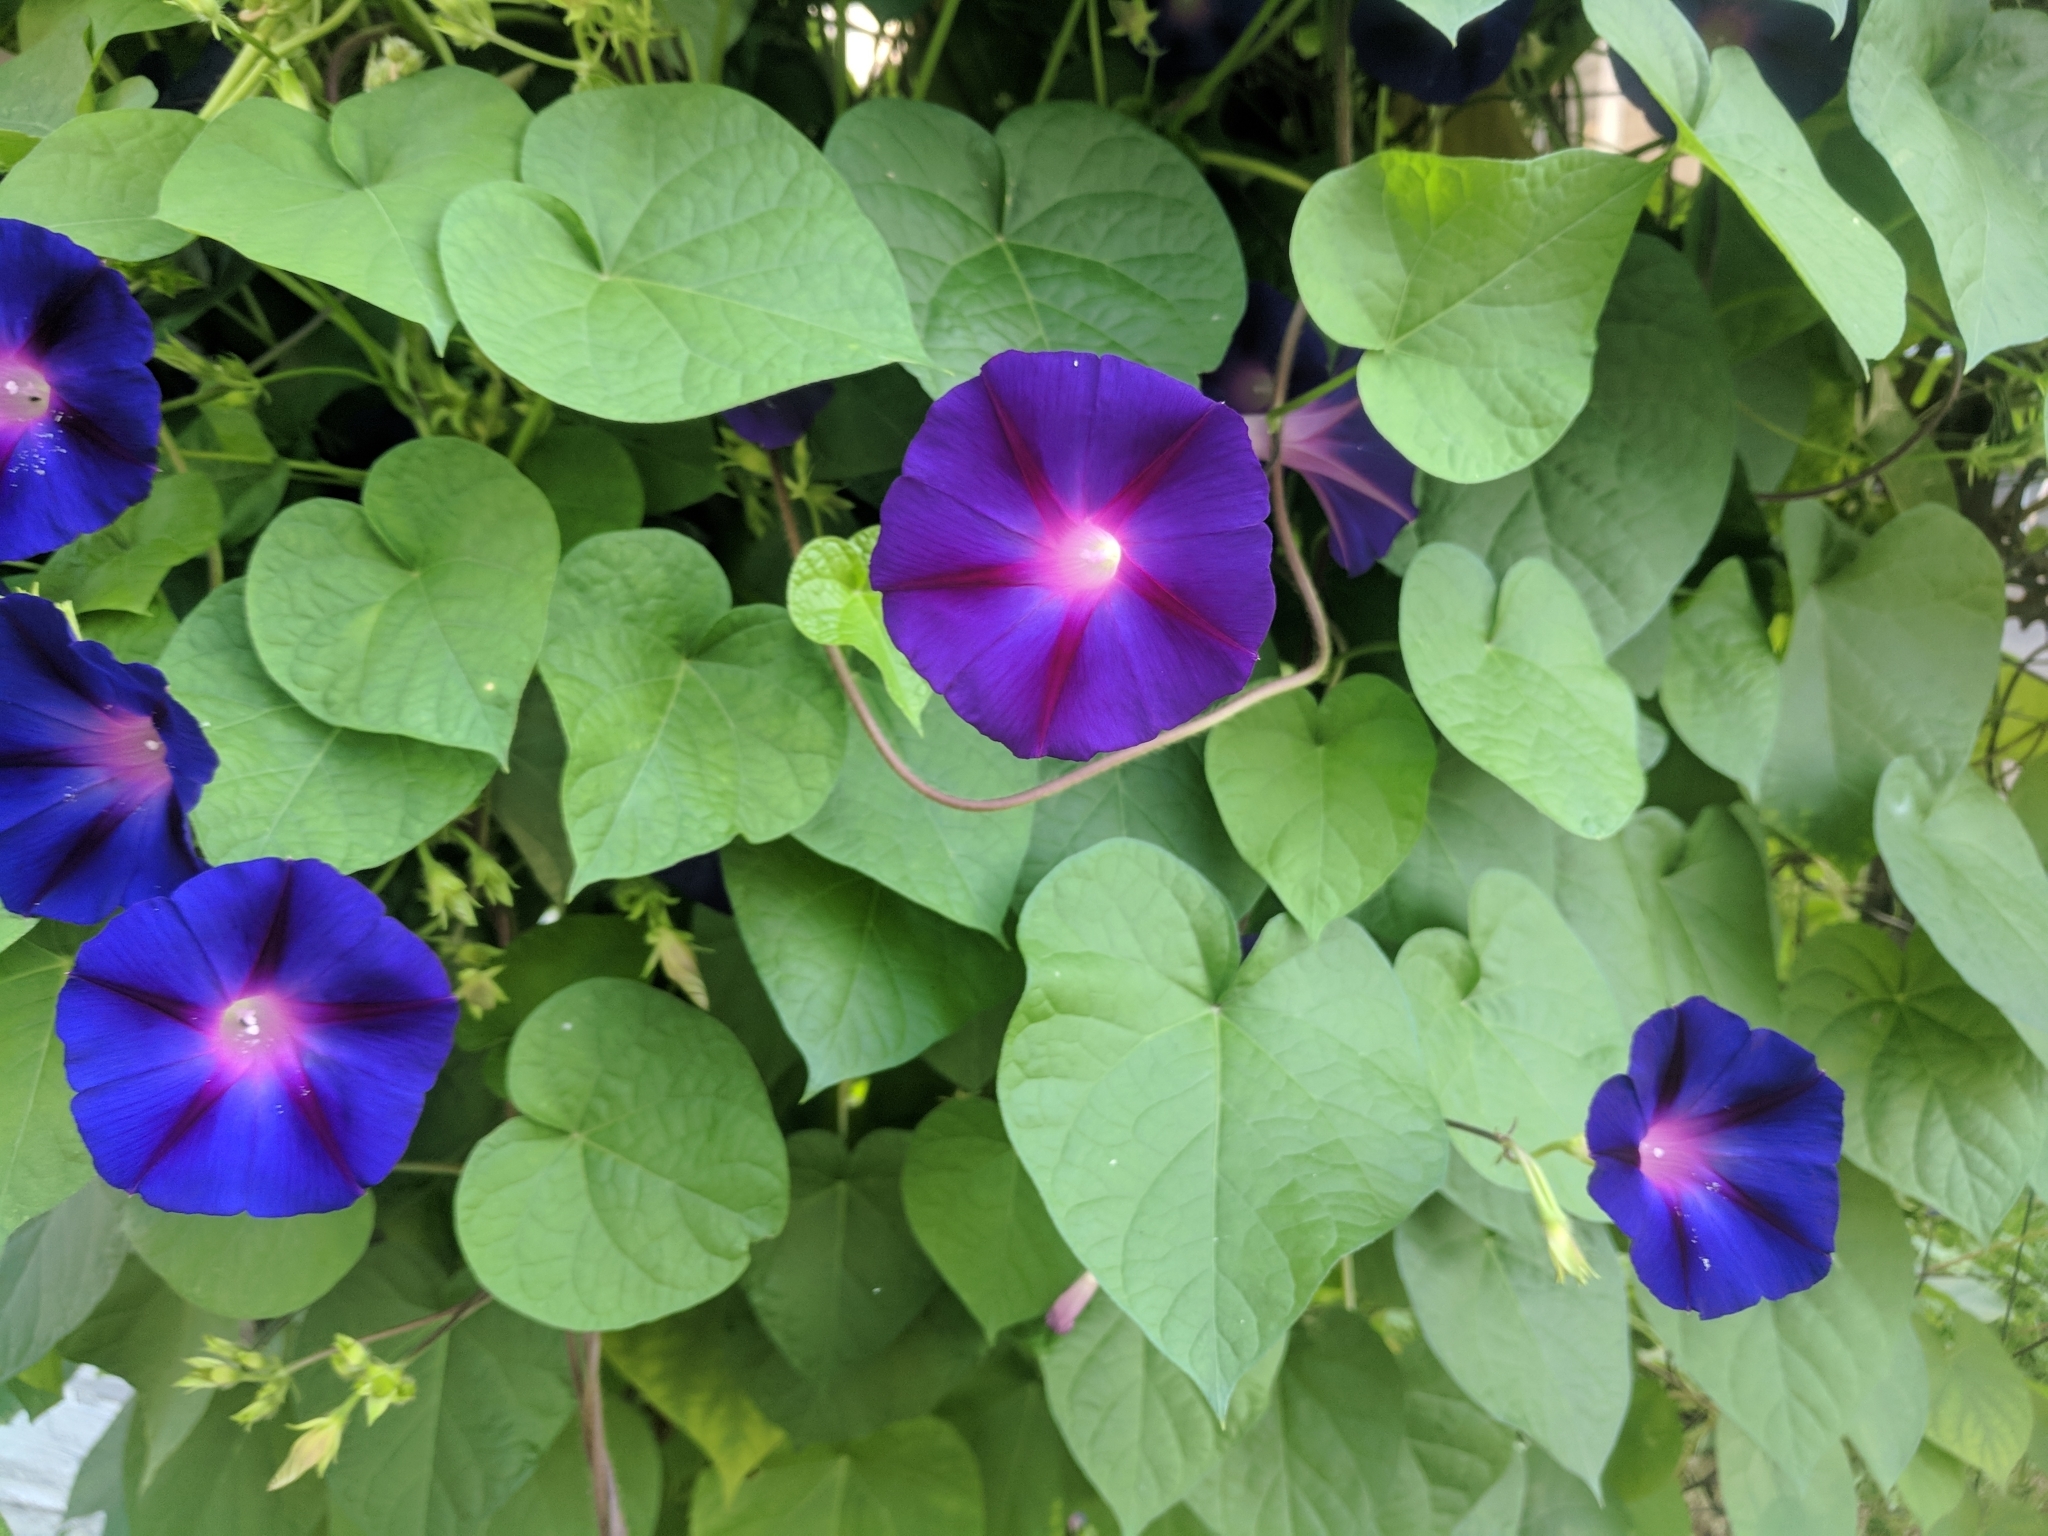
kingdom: Plantae
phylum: Tracheophyta
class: Magnoliopsida
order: Solanales
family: Convolvulaceae
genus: Ipomoea
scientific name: Ipomoea purpurea
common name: Common morning-glory
